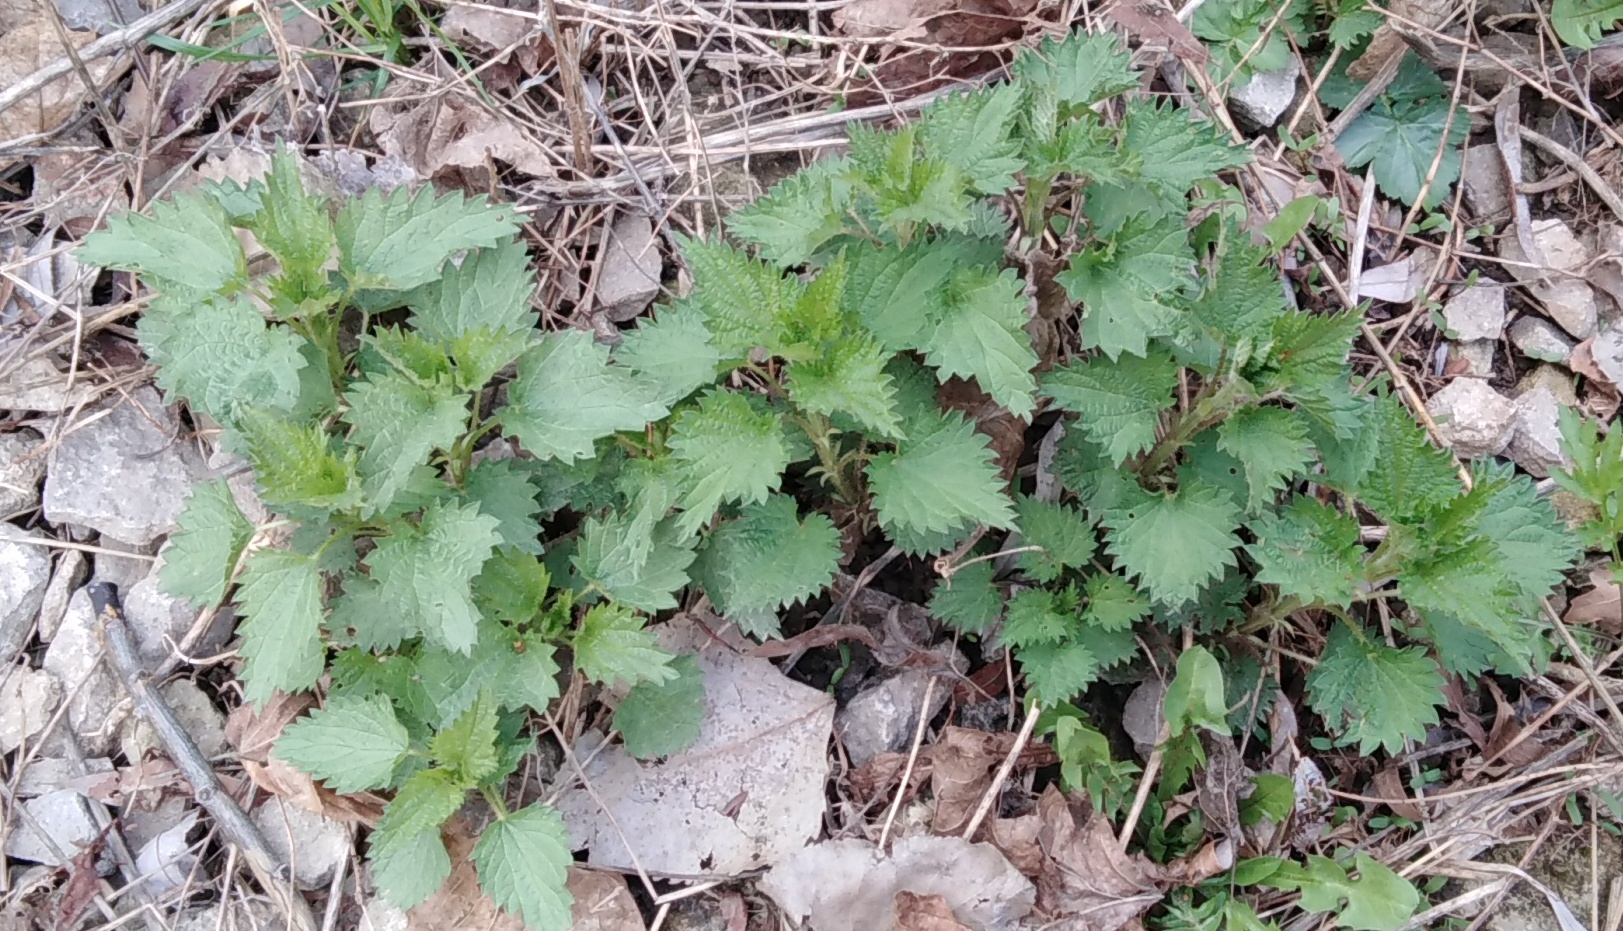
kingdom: Plantae
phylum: Tracheophyta
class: Magnoliopsida
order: Rosales
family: Urticaceae
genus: Urtica
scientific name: Urtica dioica
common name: Common nettle
